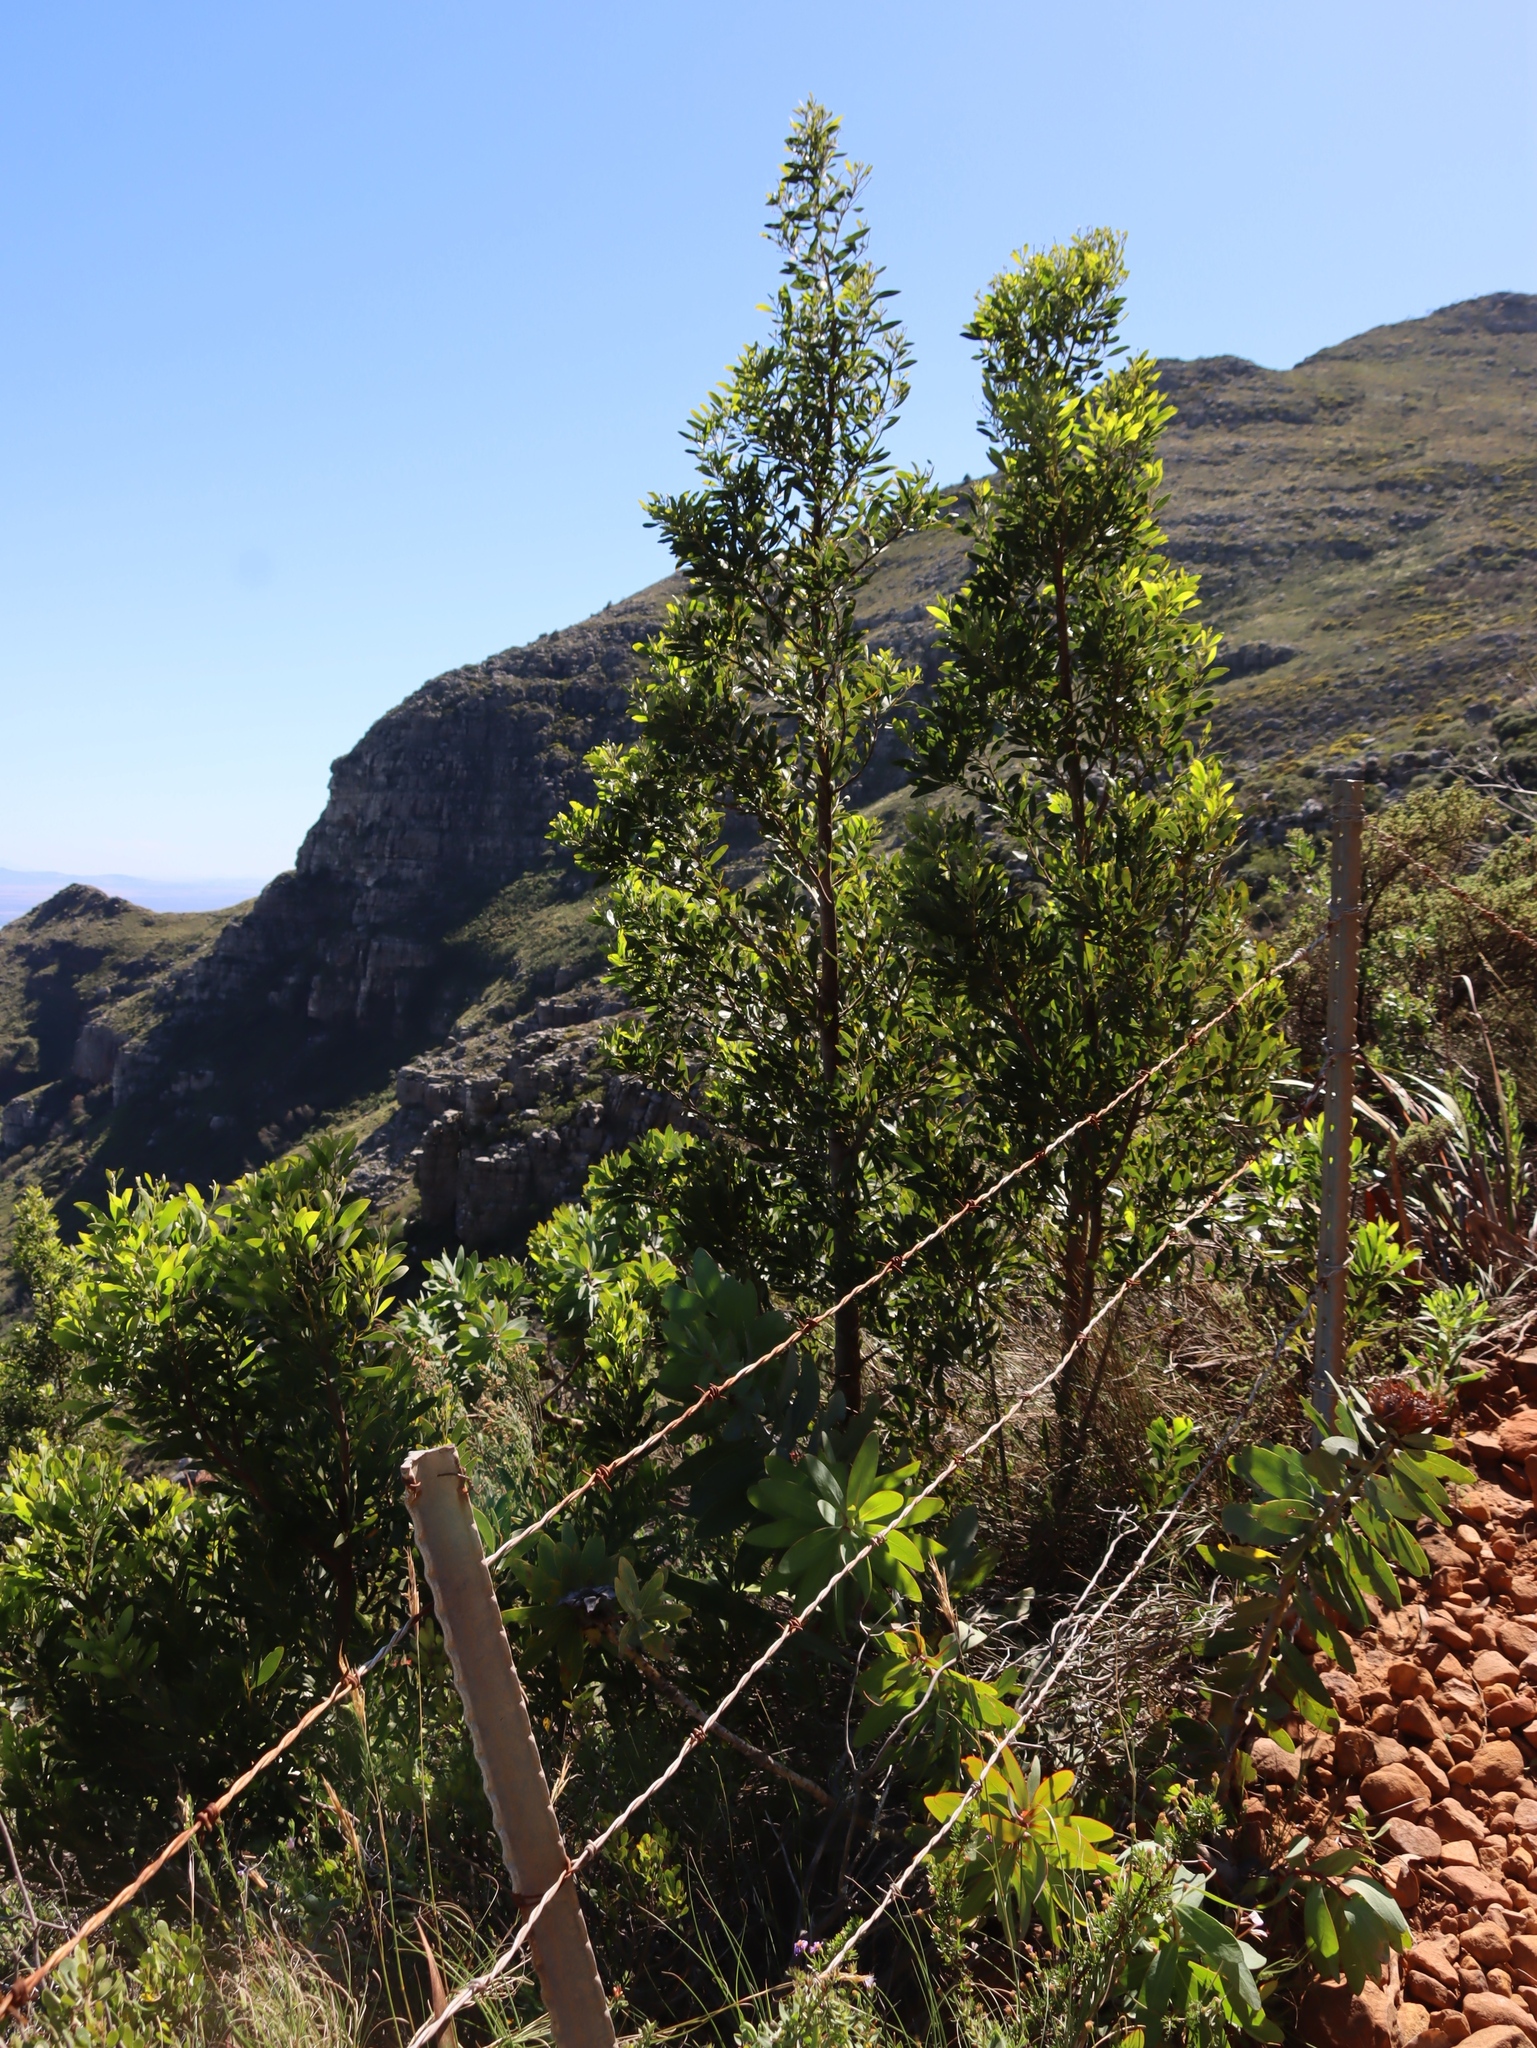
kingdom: Plantae
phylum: Tracheophyta
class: Magnoliopsida
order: Fabales
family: Fabaceae
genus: Acacia
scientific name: Acacia melanoxylon
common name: Blackwood
